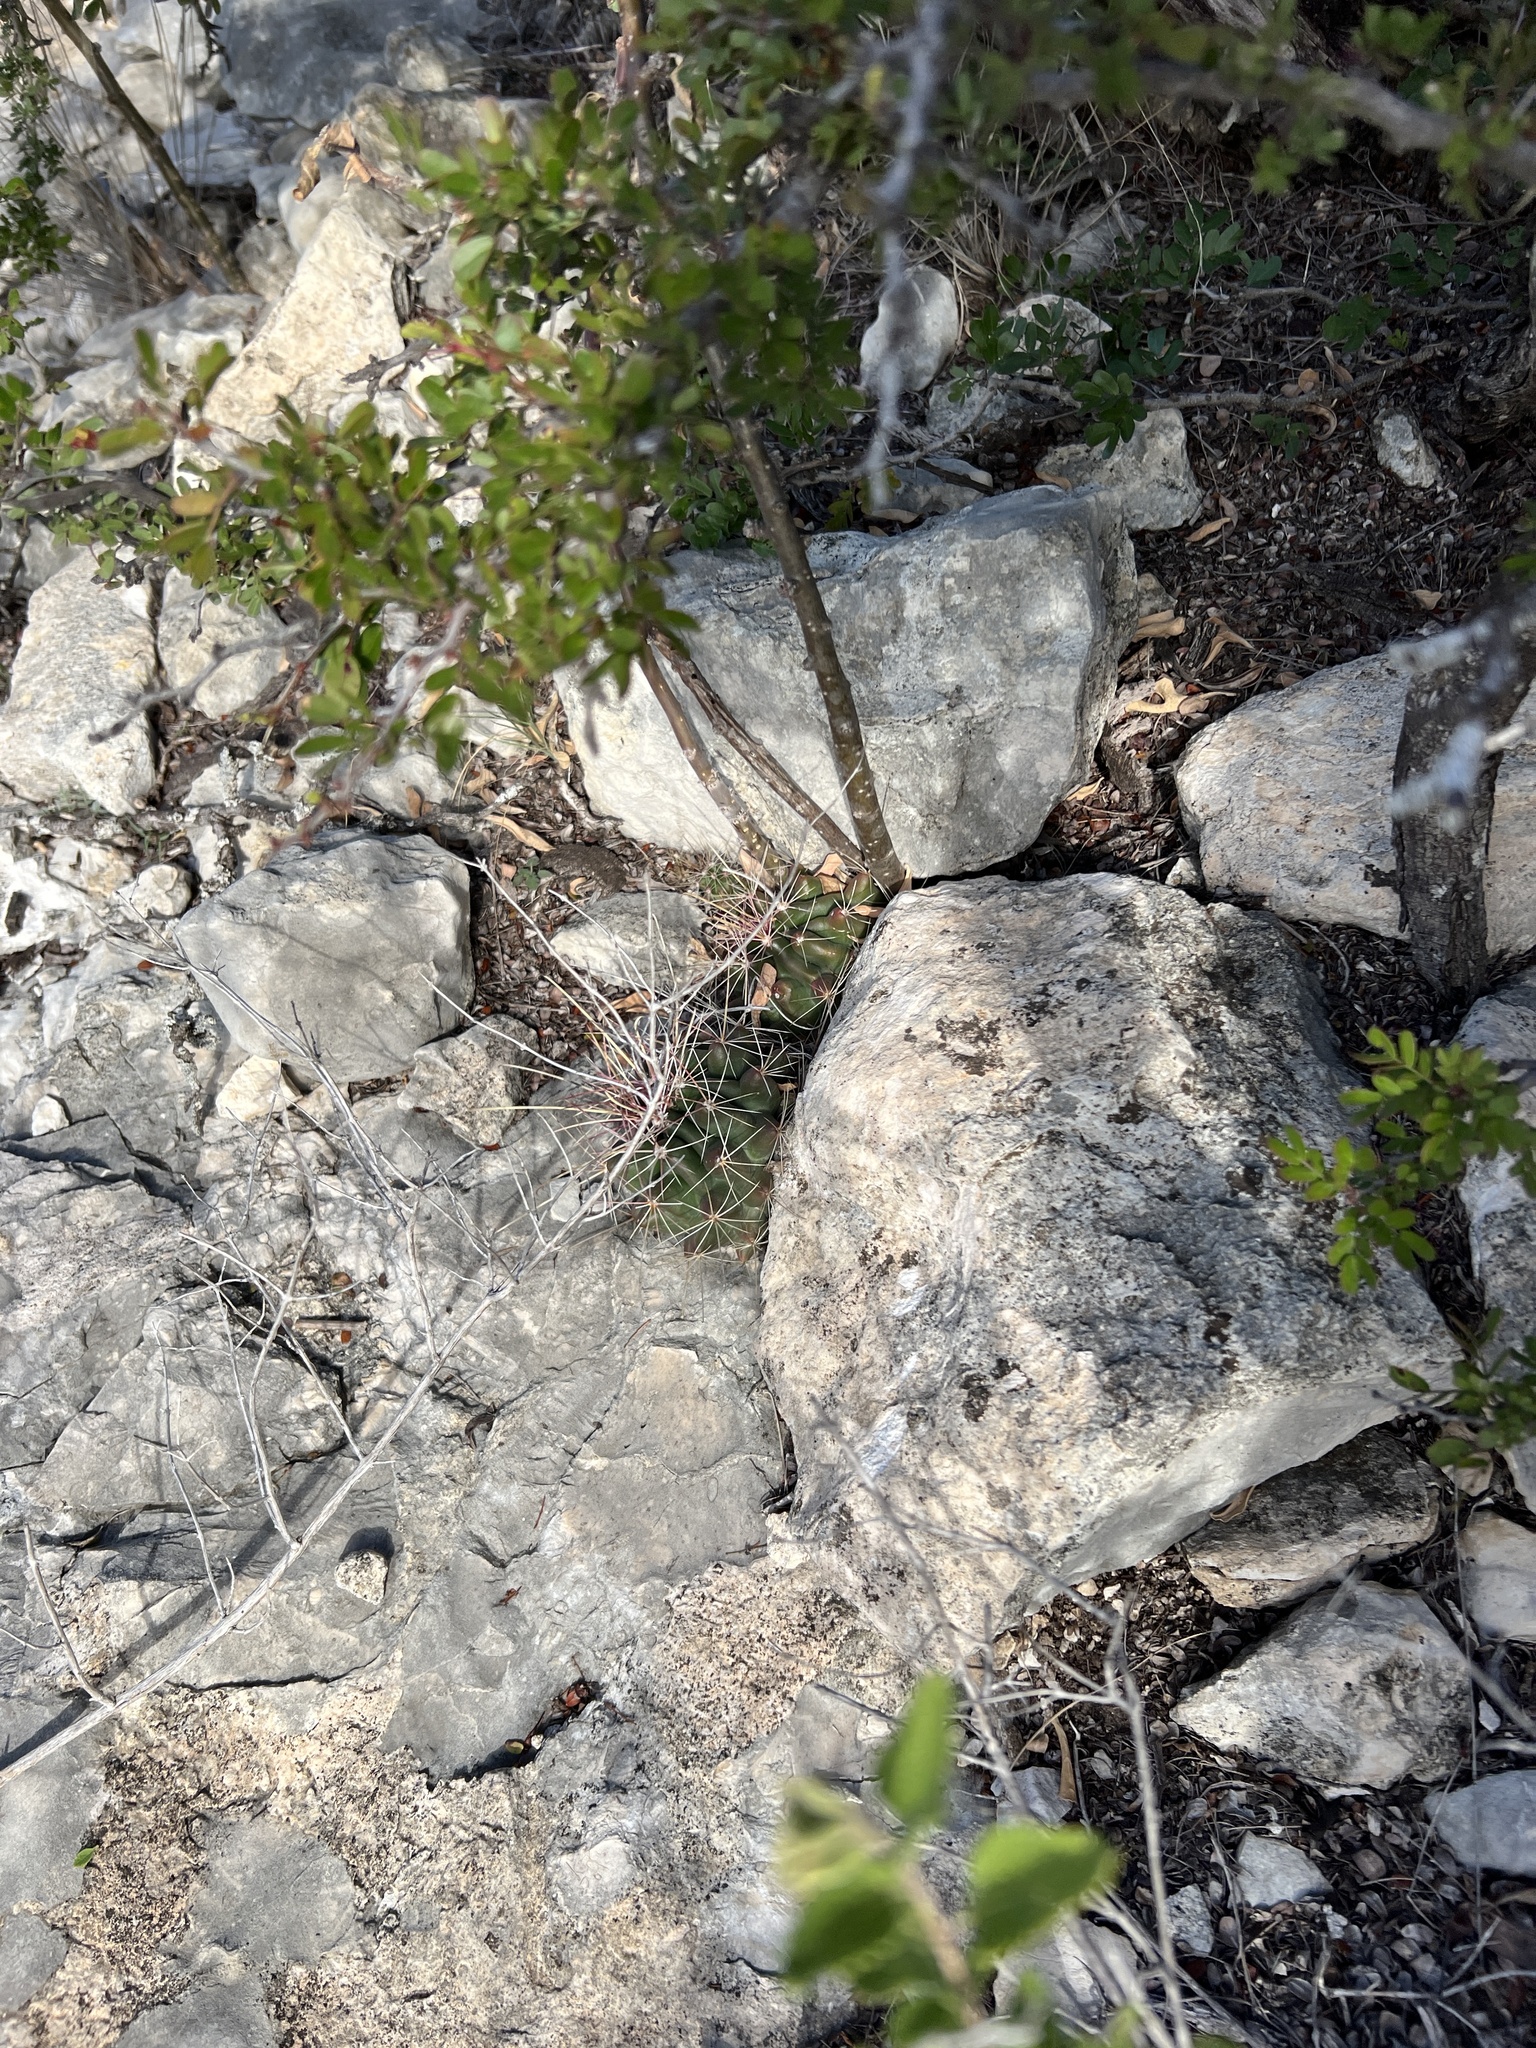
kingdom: Plantae
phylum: Tracheophyta
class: Magnoliopsida
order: Caryophyllales
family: Cactaceae
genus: Bisnaga
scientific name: Bisnaga hamatacantha
